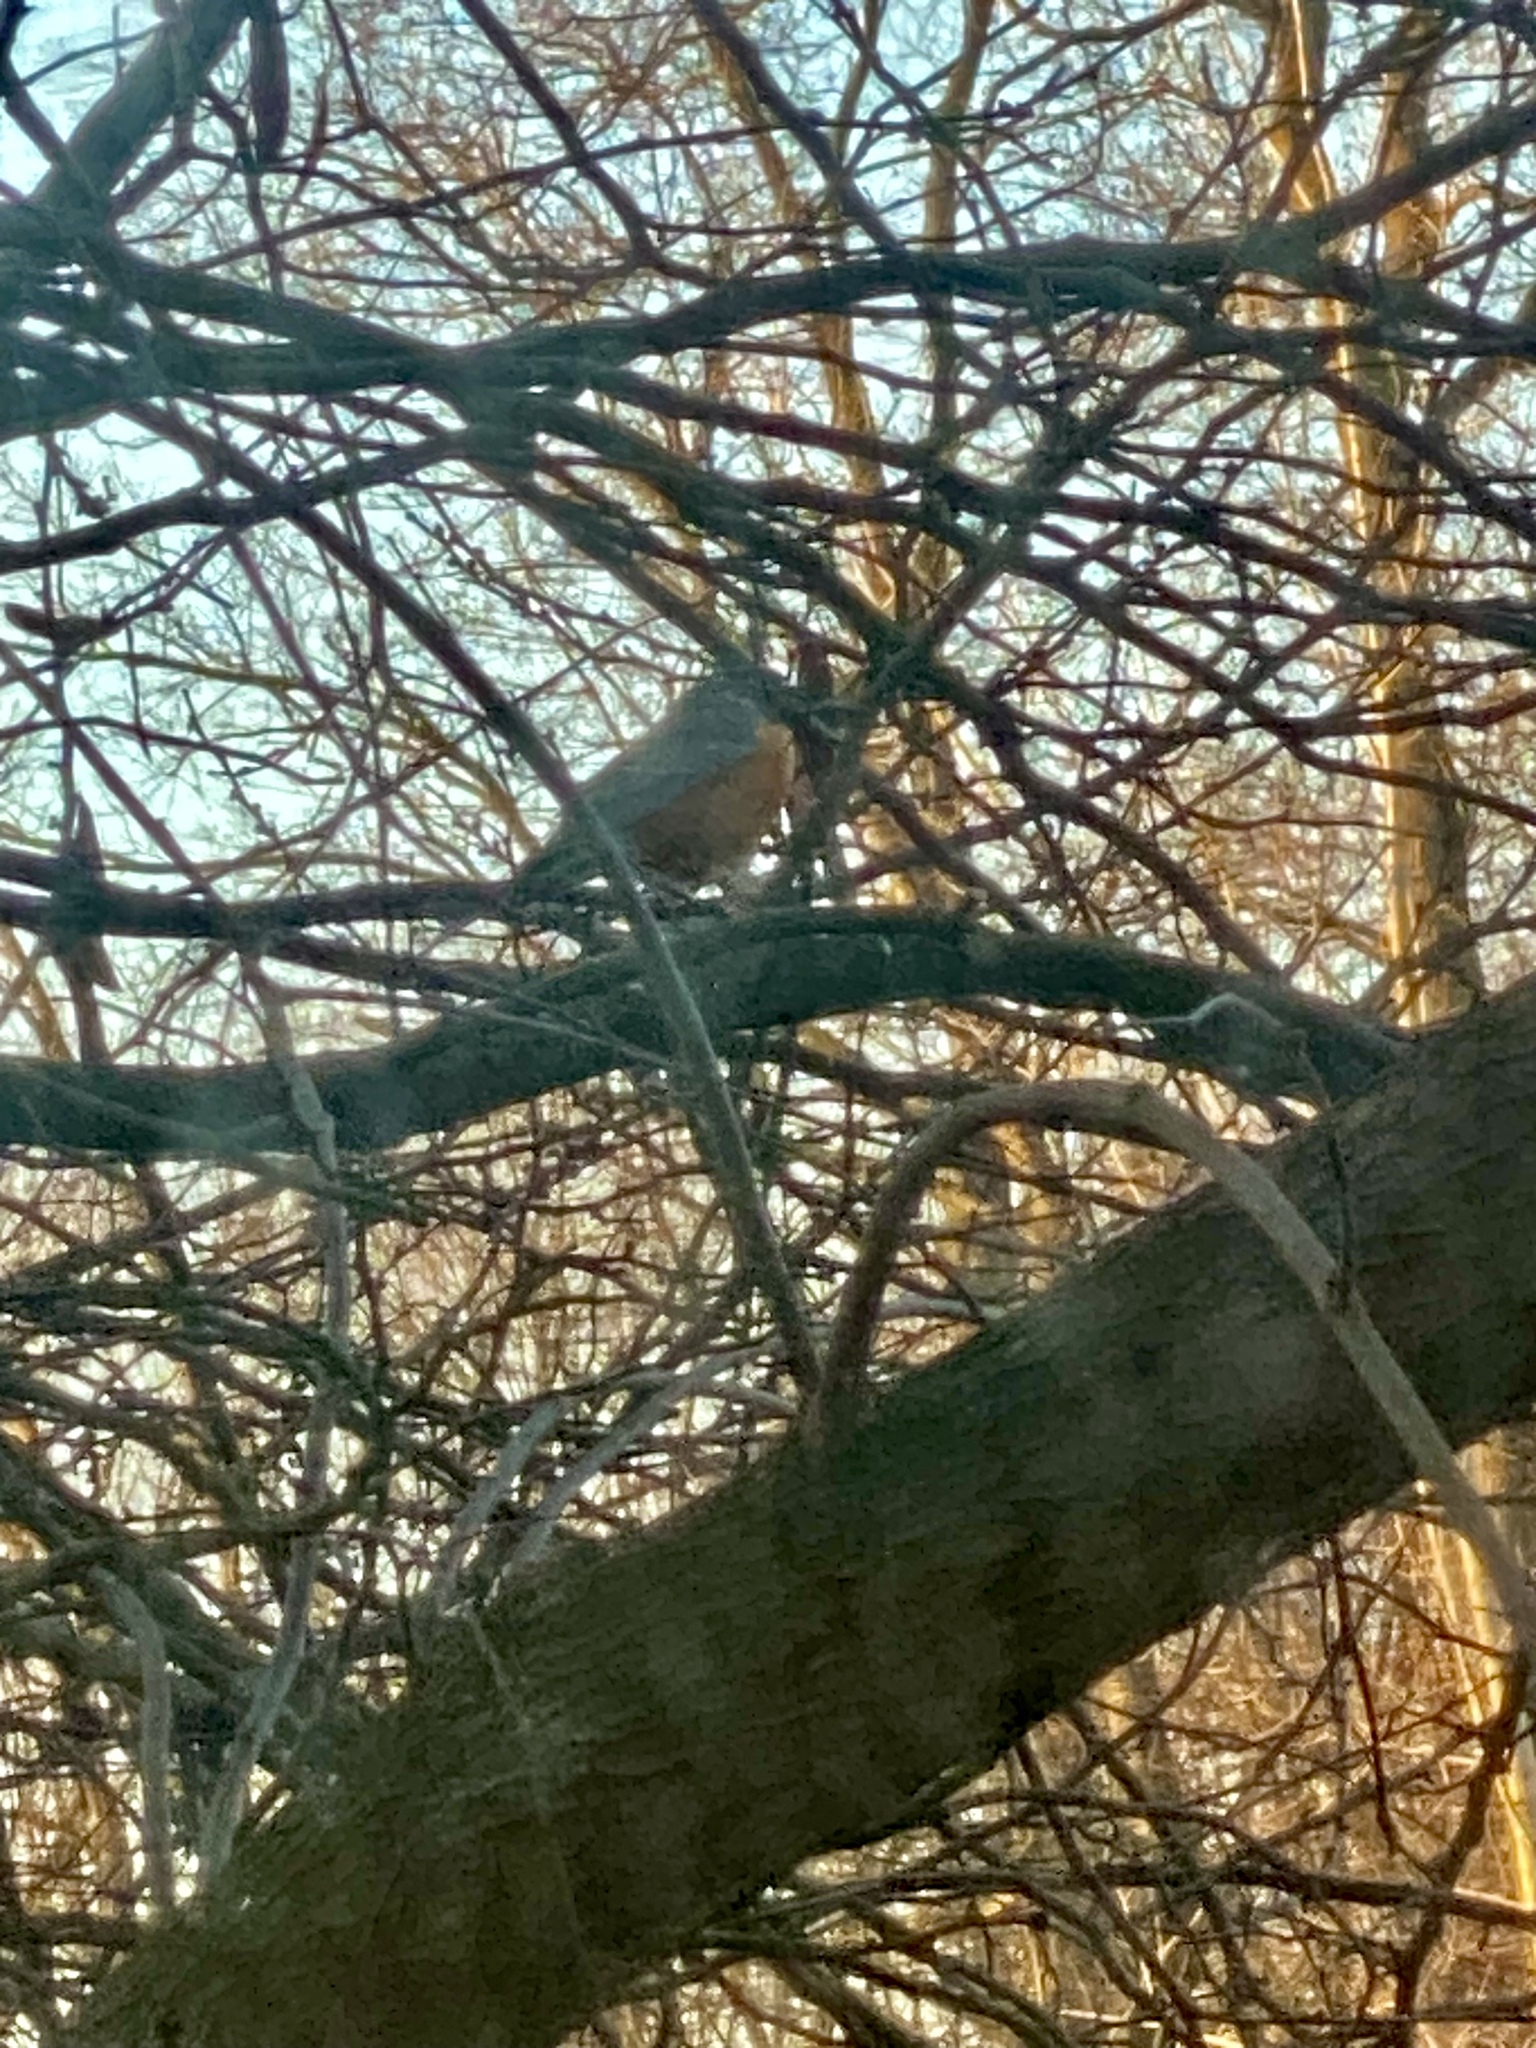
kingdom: Animalia
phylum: Chordata
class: Aves
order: Passeriformes
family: Turdidae
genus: Turdus
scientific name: Turdus migratorius
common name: American robin
